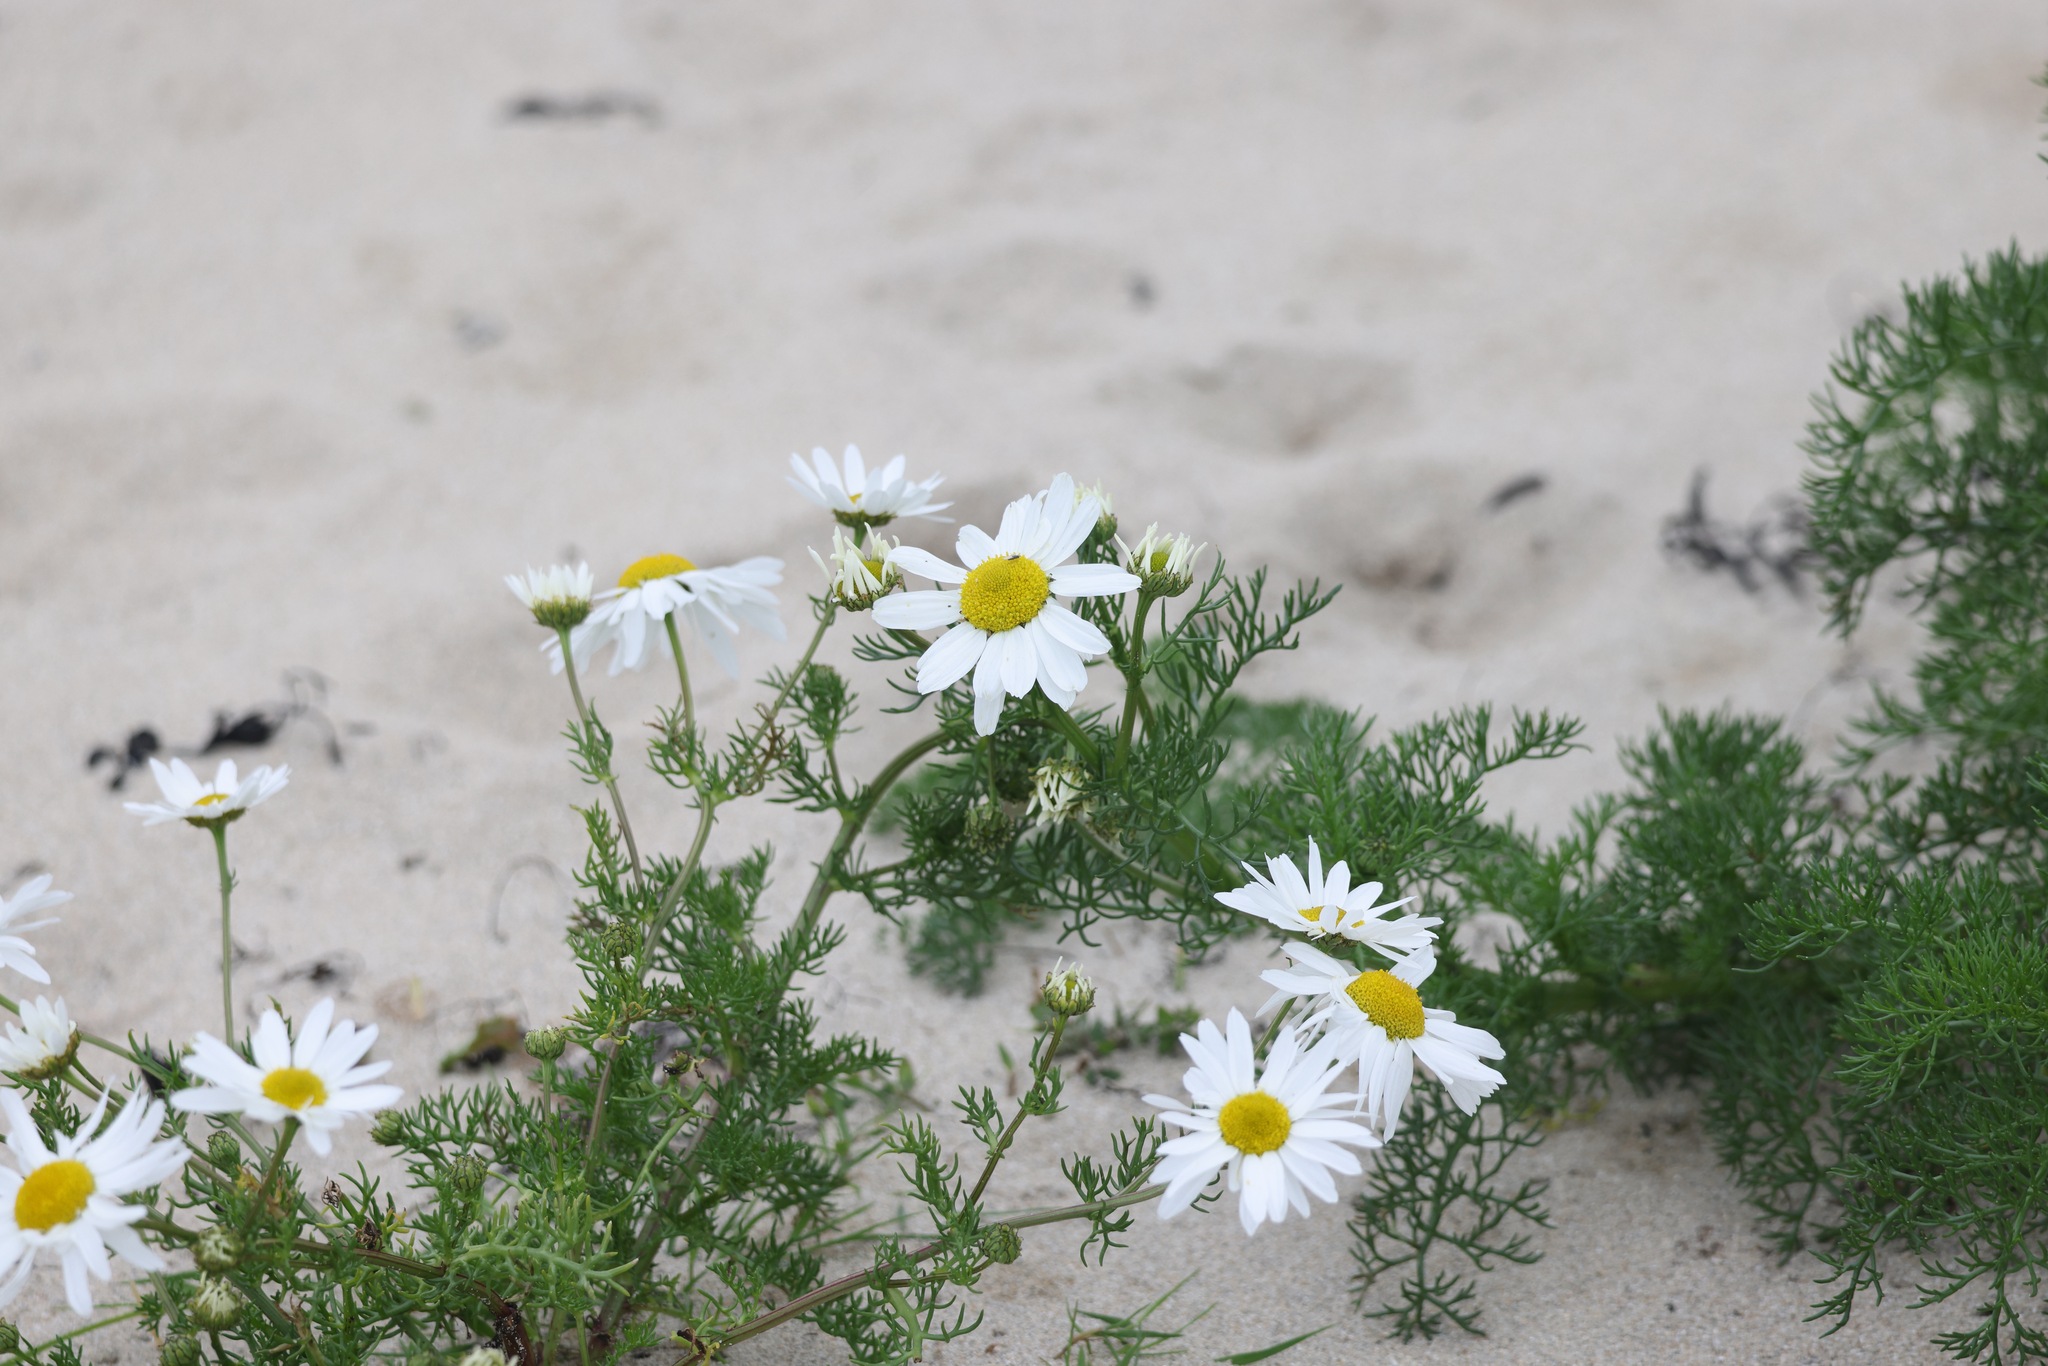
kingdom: Plantae
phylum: Tracheophyta
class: Magnoliopsida
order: Asterales
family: Asteraceae
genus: Tripleurospermum
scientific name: Tripleurospermum maritimum
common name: Sea mayweed
